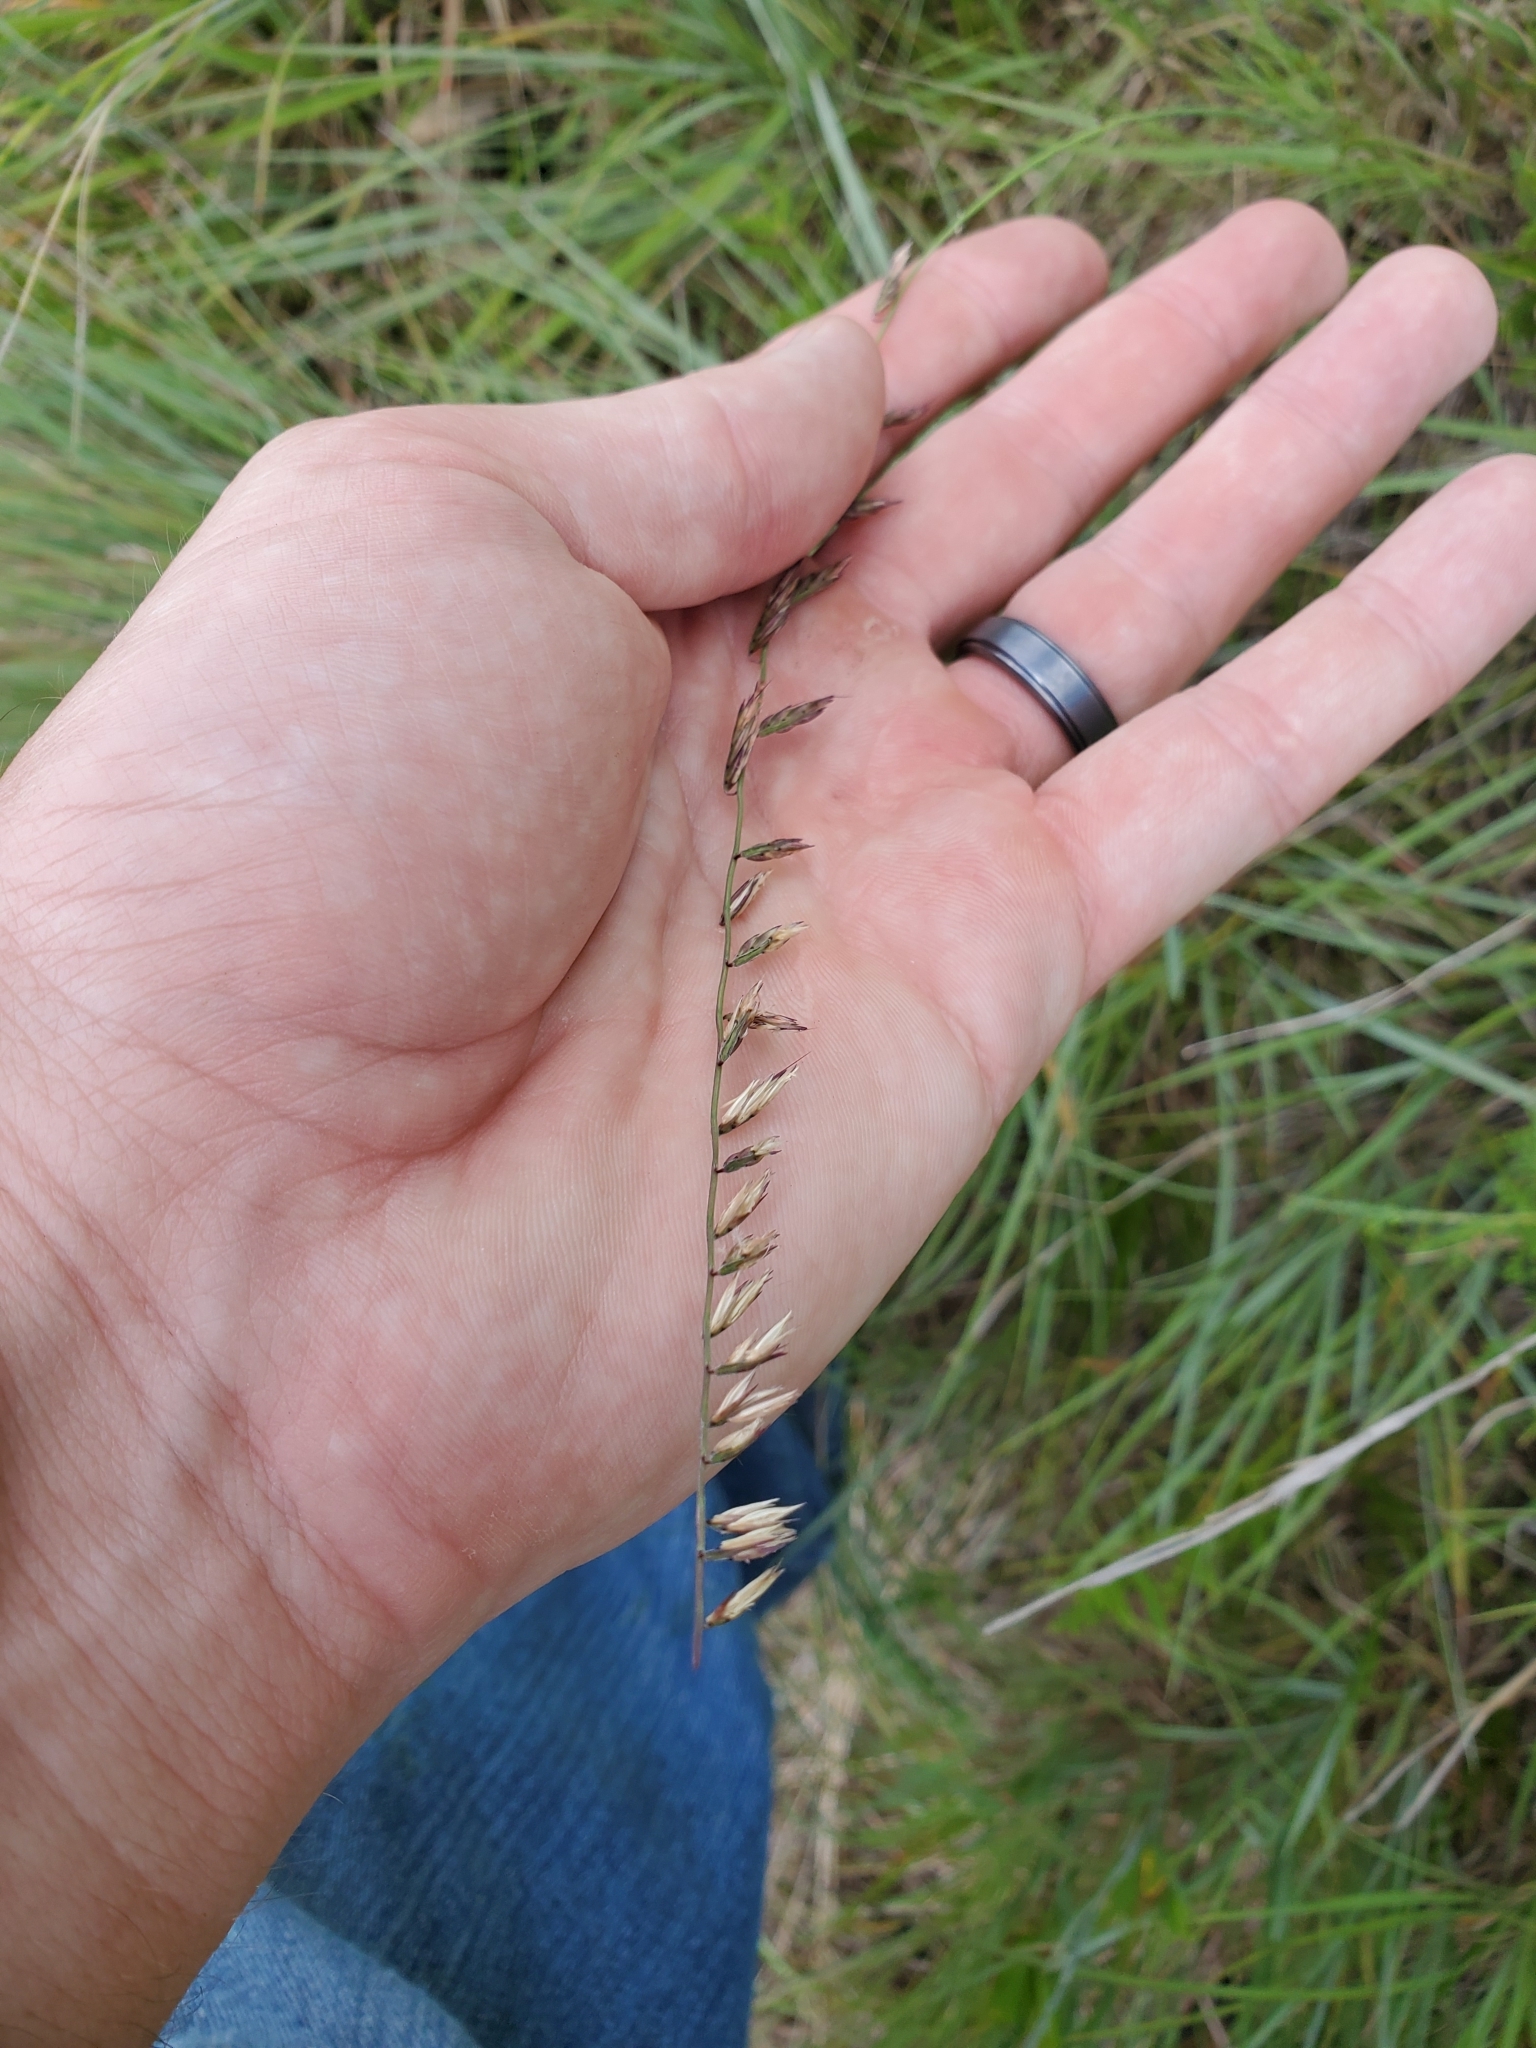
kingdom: Plantae
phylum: Tracheophyta
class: Liliopsida
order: Poales
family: Poaceae
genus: Bouteloua
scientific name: Bouteloua curtipendula
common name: Side-oats grama
